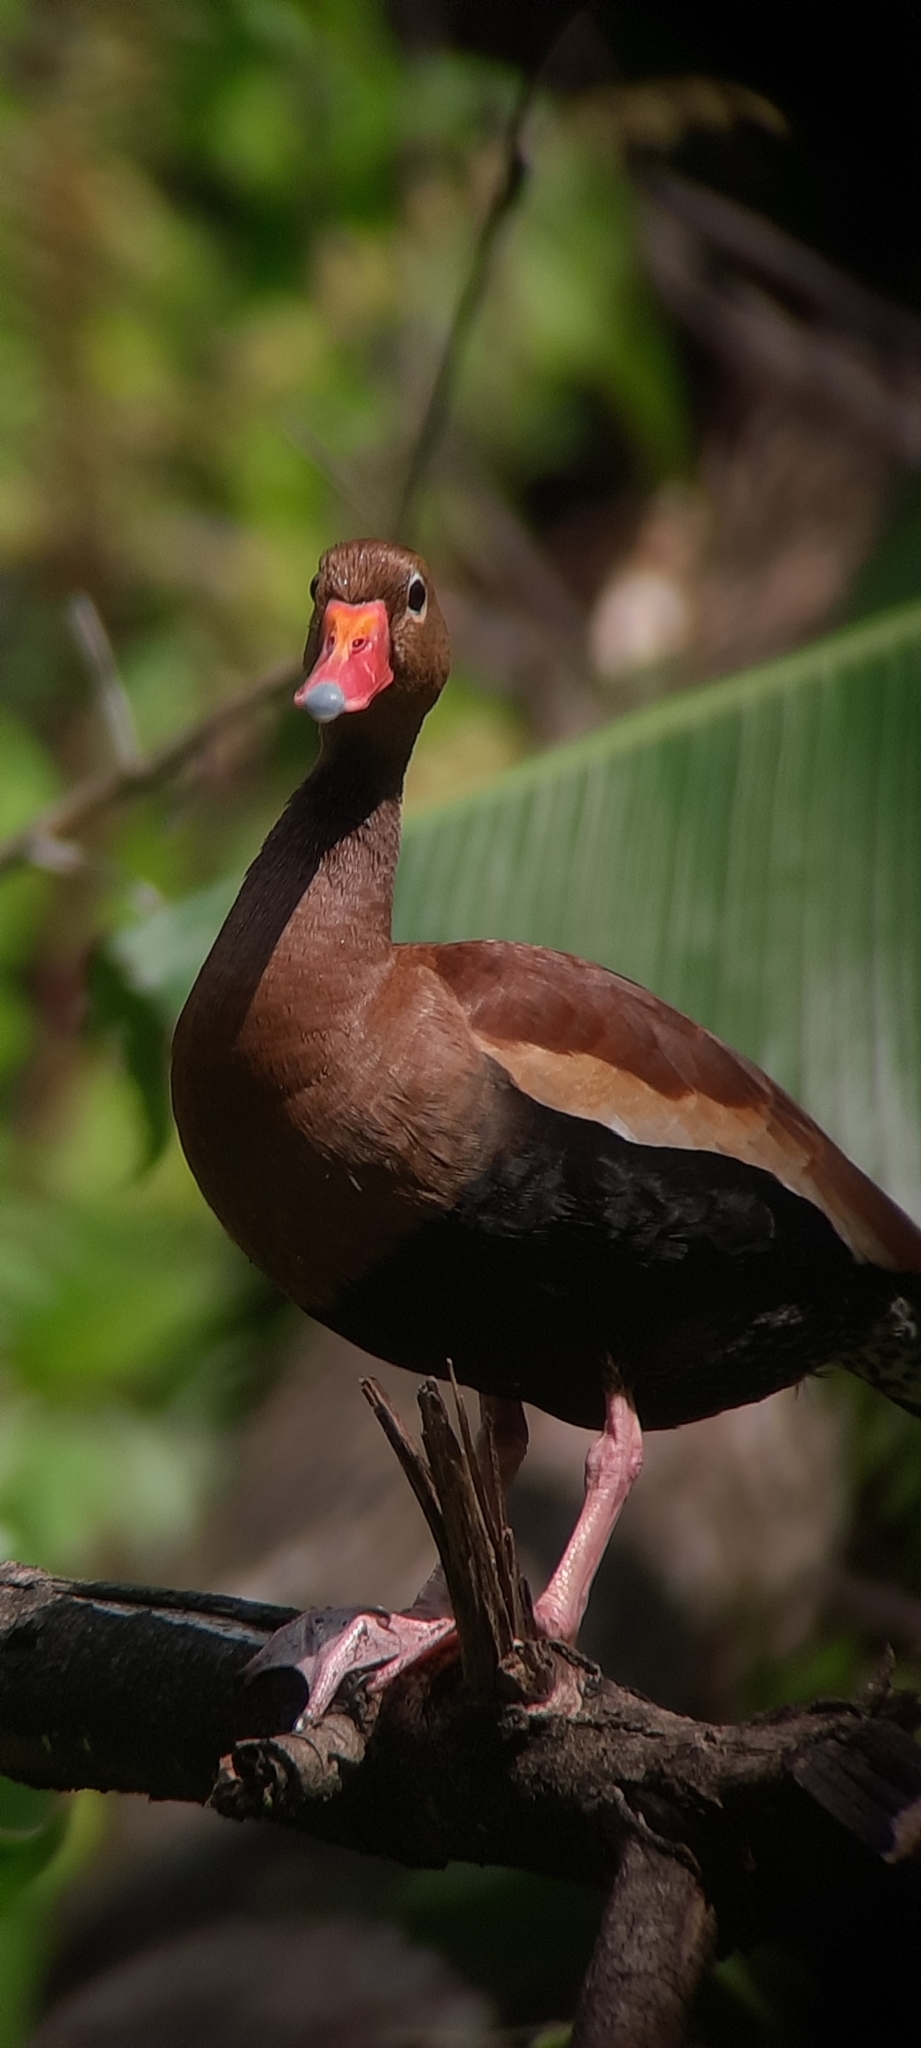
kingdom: Animalia
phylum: Chordata
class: Aves
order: Anseriformes
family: Anatidae
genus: Dendrocygna
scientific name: Dendrocygna autumnalis
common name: Black-bellied whistling duck
